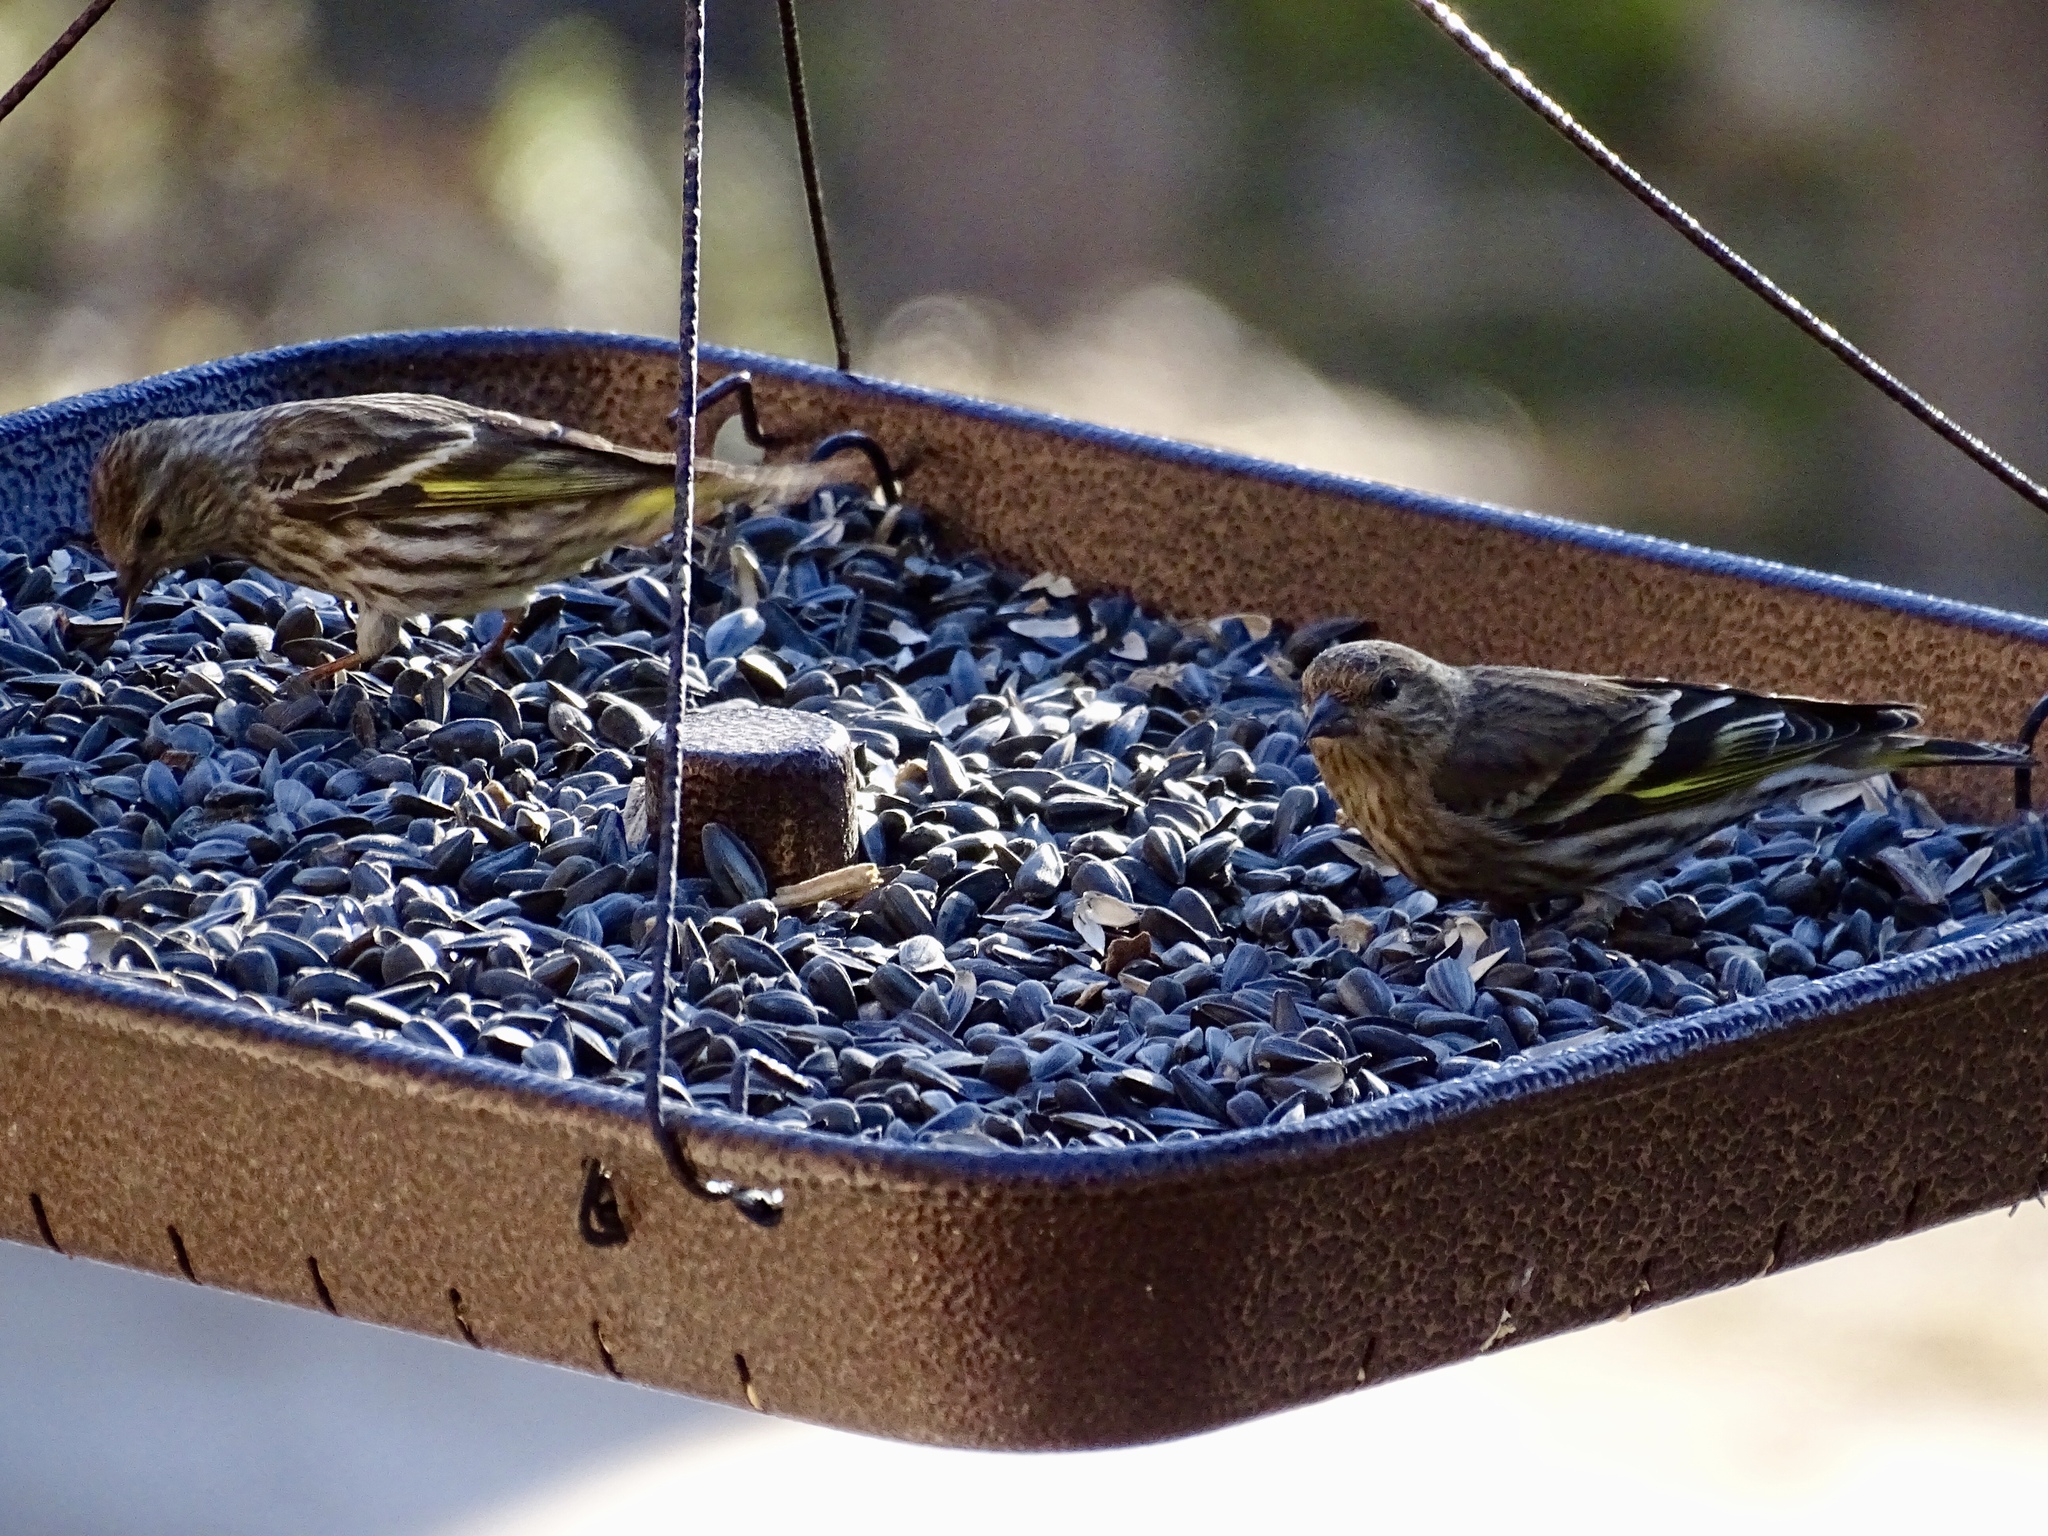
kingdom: Animalia
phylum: Chordata
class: Aves
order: Passeriformes
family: Fringillidae
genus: Spinus
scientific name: Spinus pinus
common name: Pine siskin
